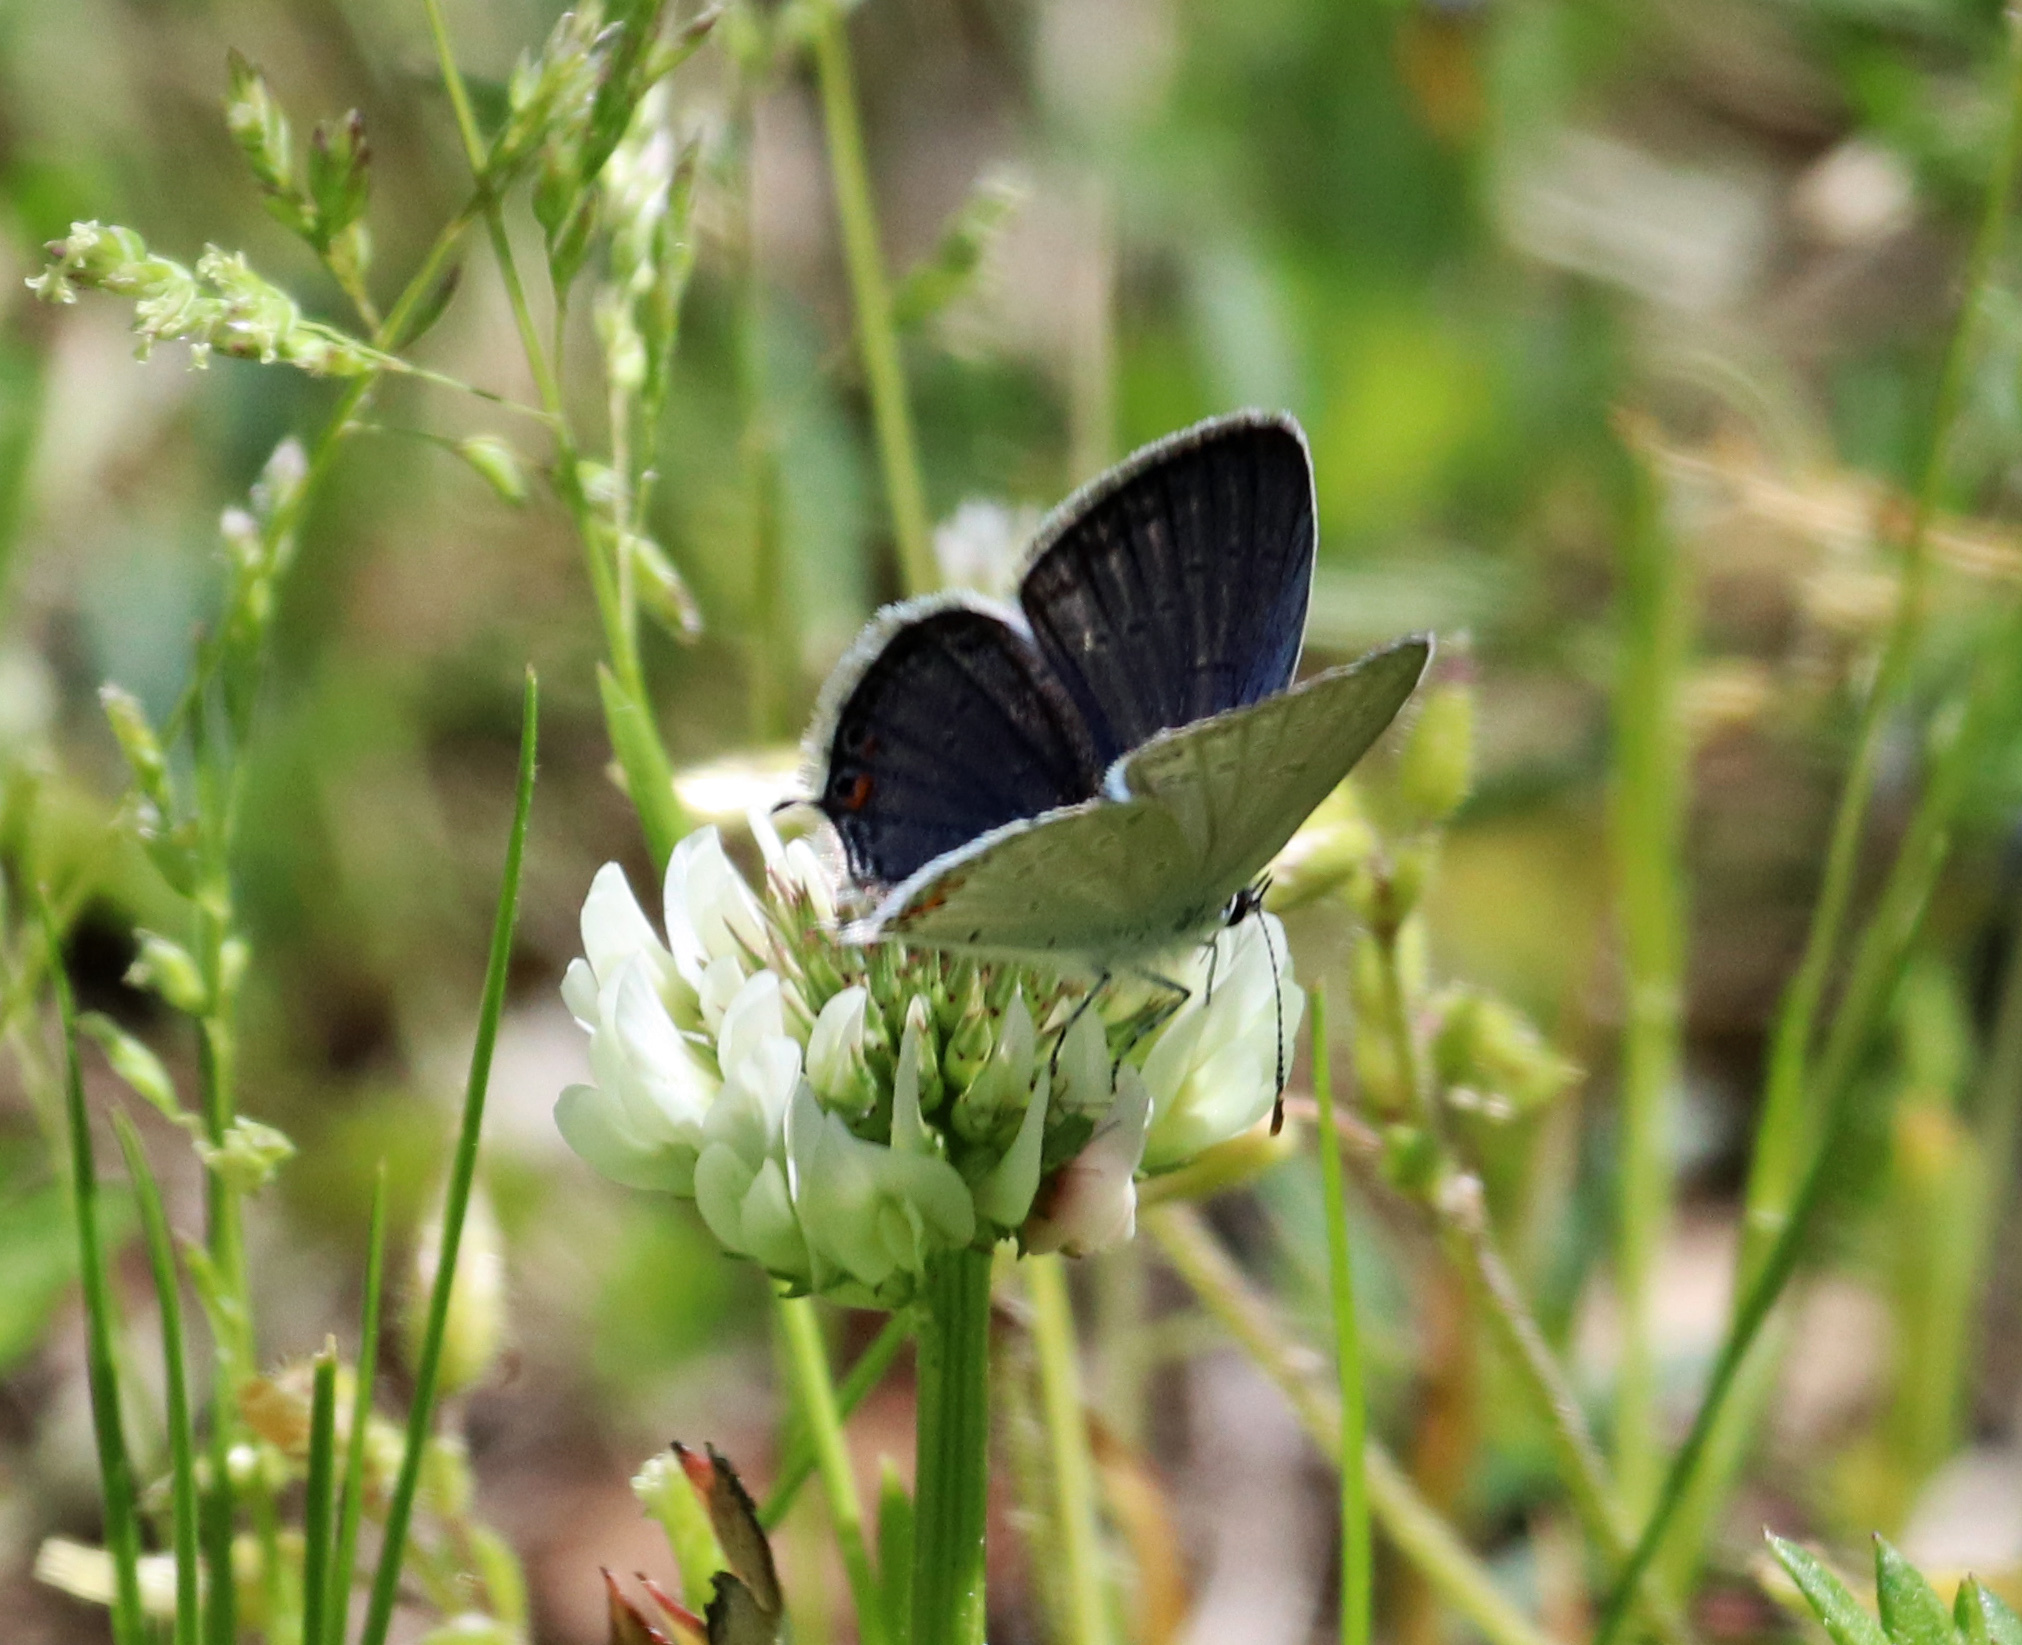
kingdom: Animalia
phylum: Arthropoda
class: Insecta
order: Lepidoptera
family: Lycaenidae
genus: Elkalyce
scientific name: Elkalyce comyntas
